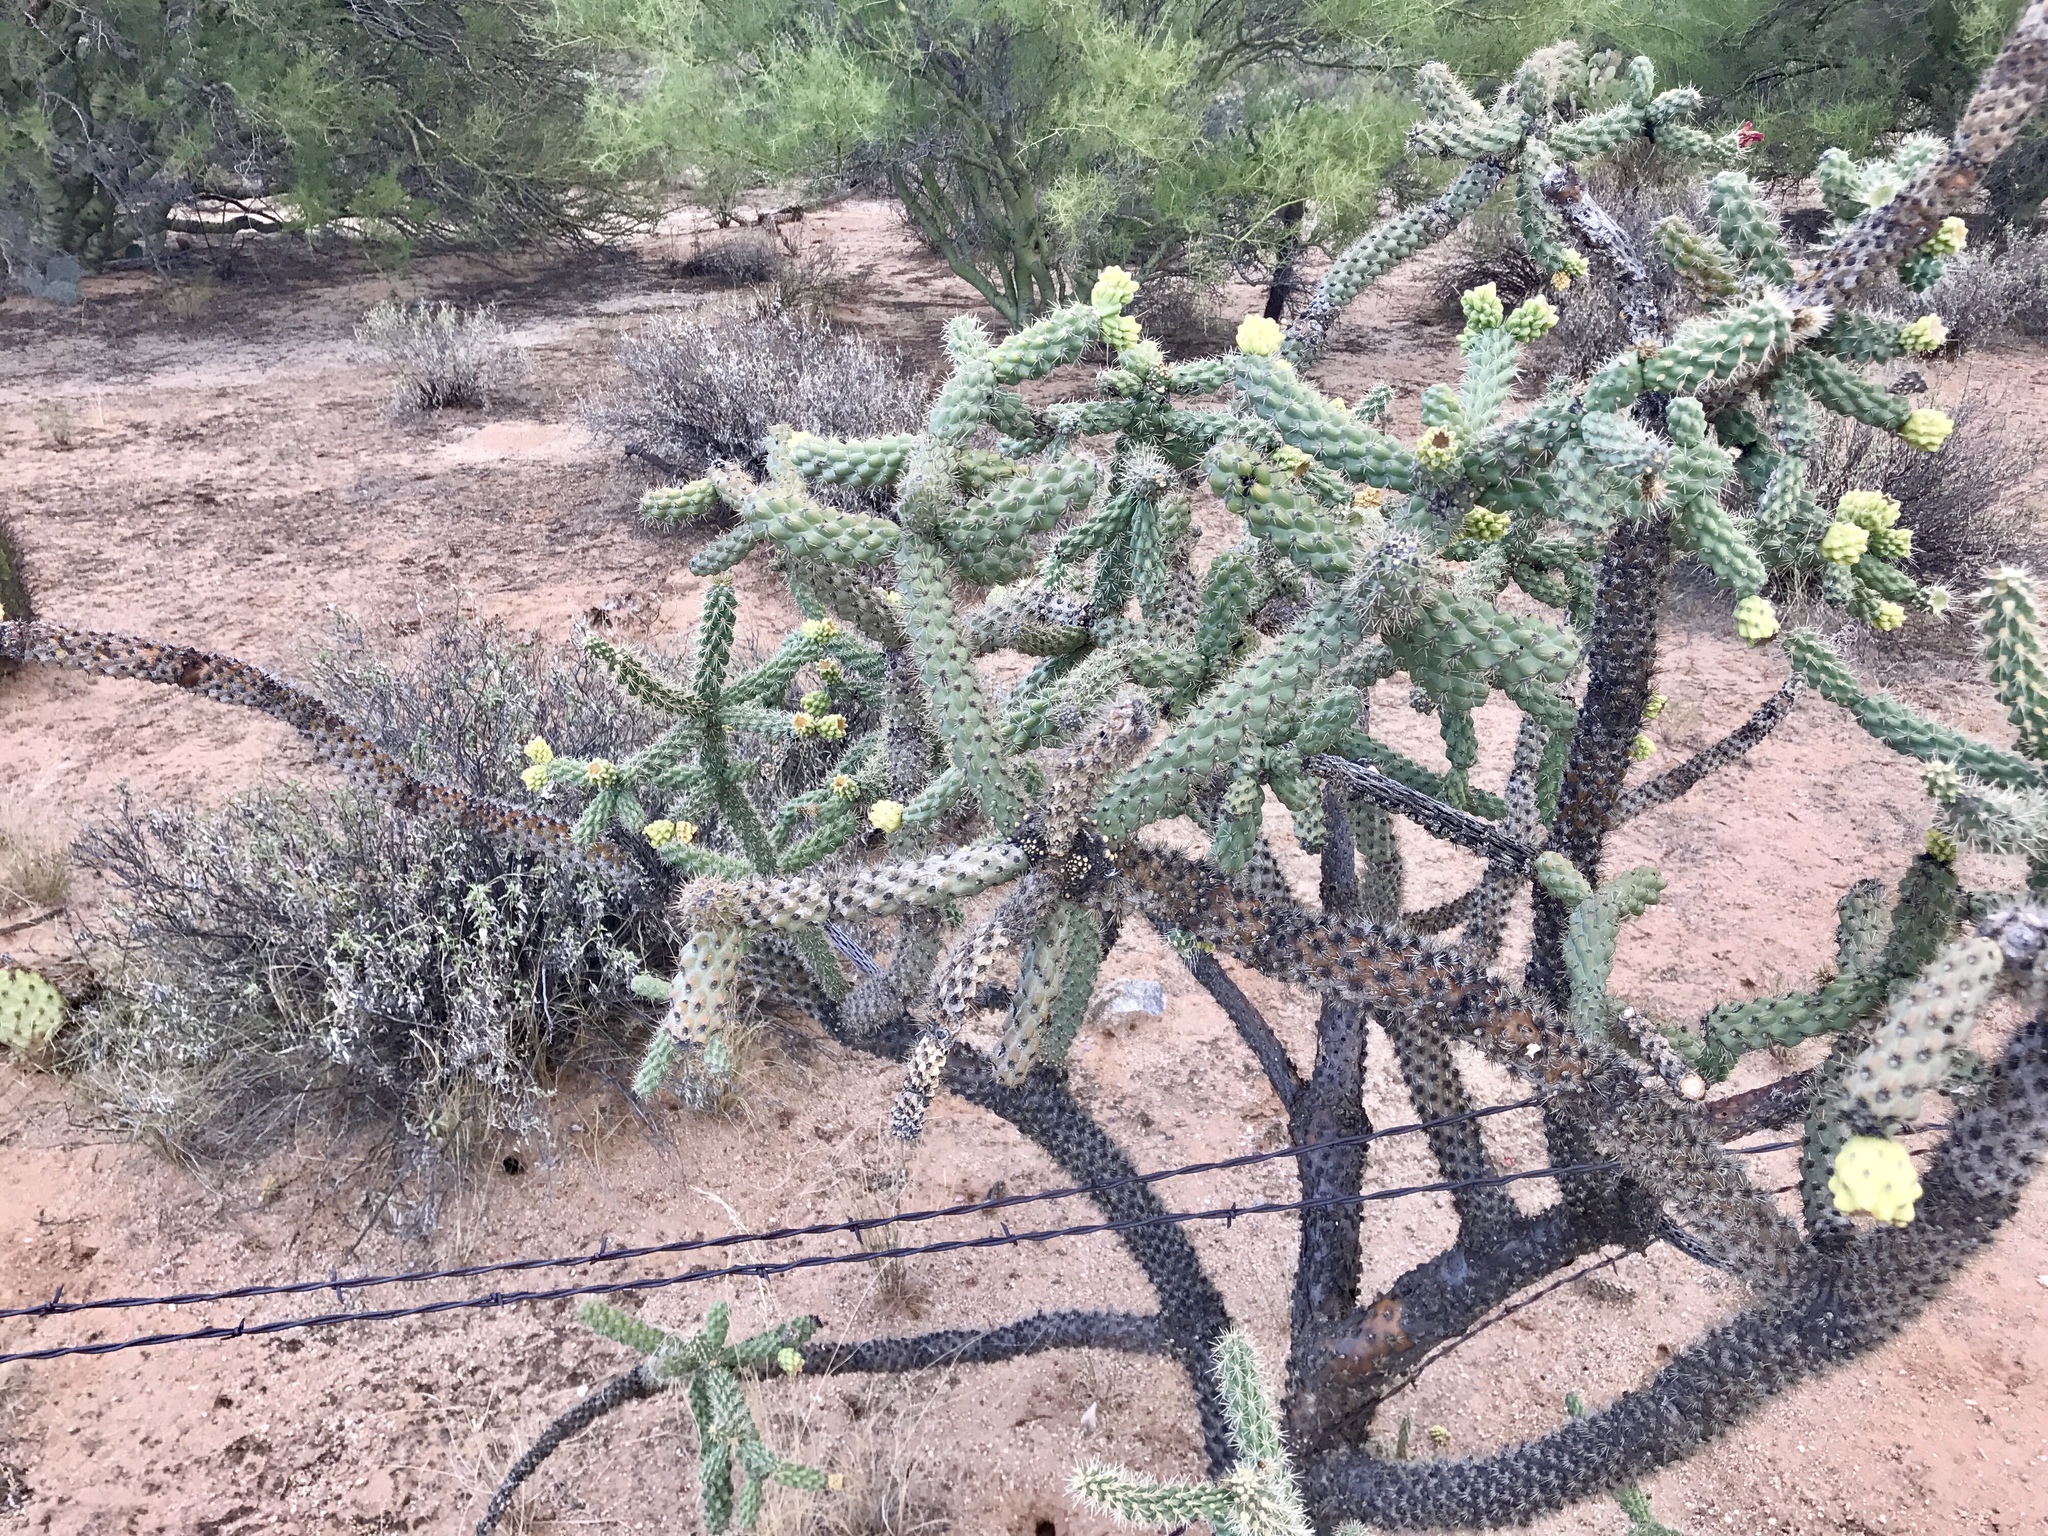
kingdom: Plantae
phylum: Tracheophyta
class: Magnoliopsida
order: Caryophyllales
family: Cactaceae
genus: Cylindropuntia
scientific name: Cylindropuntia fulgida
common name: Jumping cholla
